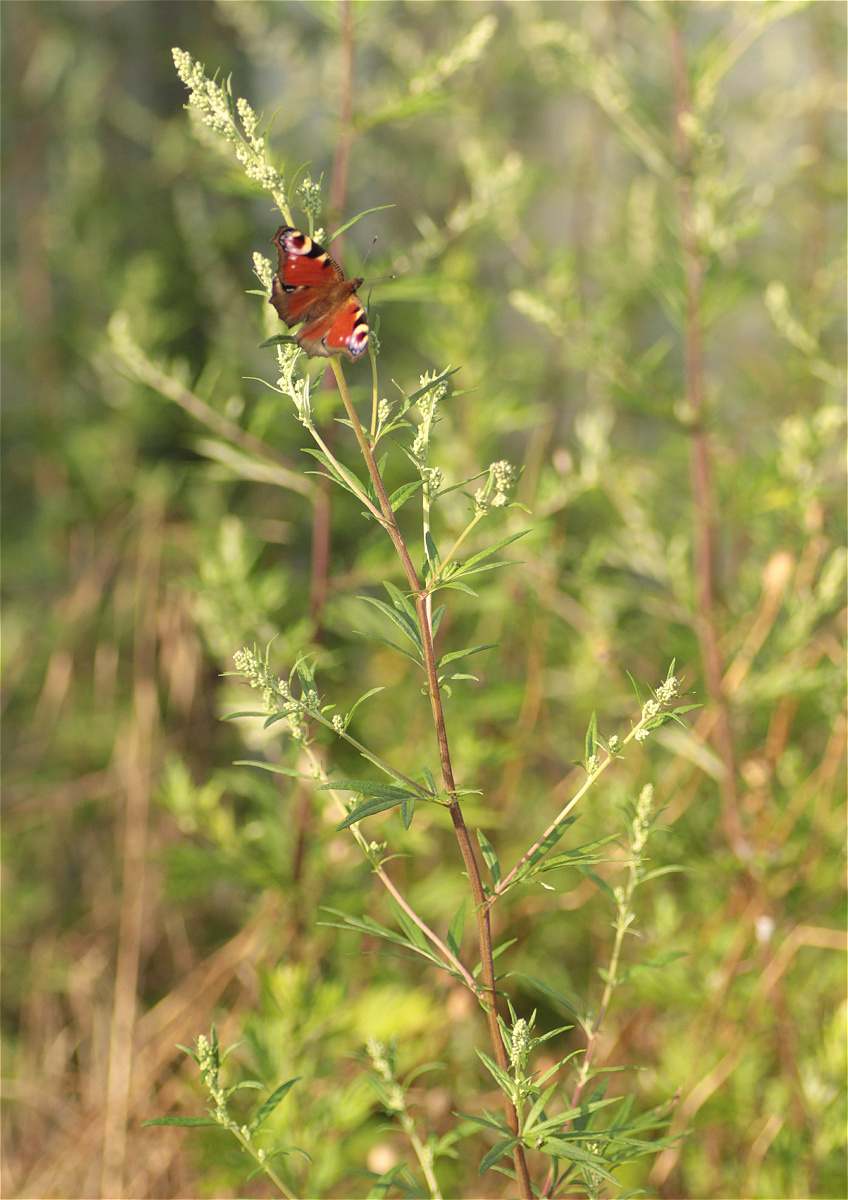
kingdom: Plantae
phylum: Tracheophyta
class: Magnoliopsida
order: Asterales
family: Asteraceae
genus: Artemisia
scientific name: Artemisia vulgaris
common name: Mugwort
